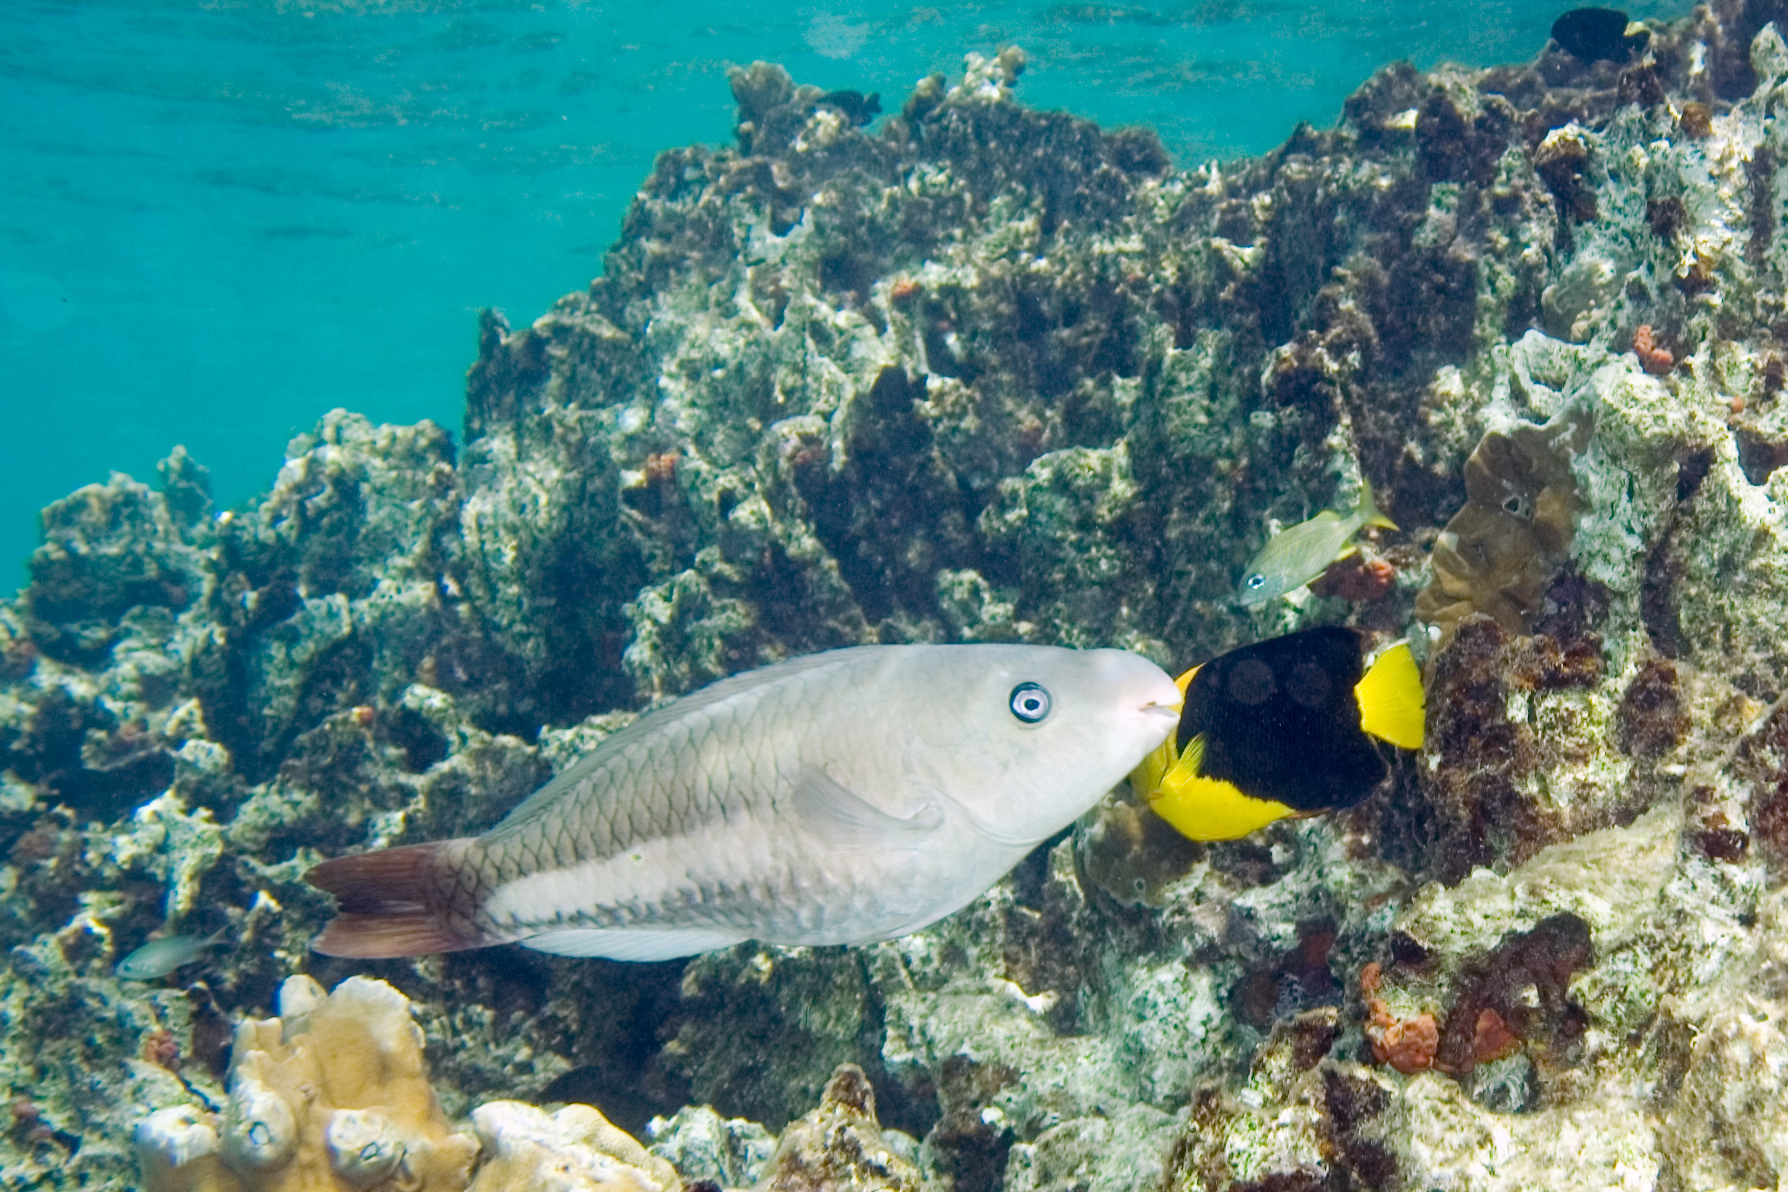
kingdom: Animalia
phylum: Chordata
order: Perciformes
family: Scaridae
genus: Scarus
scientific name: Scarus vetula
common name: Queen parrotfish
